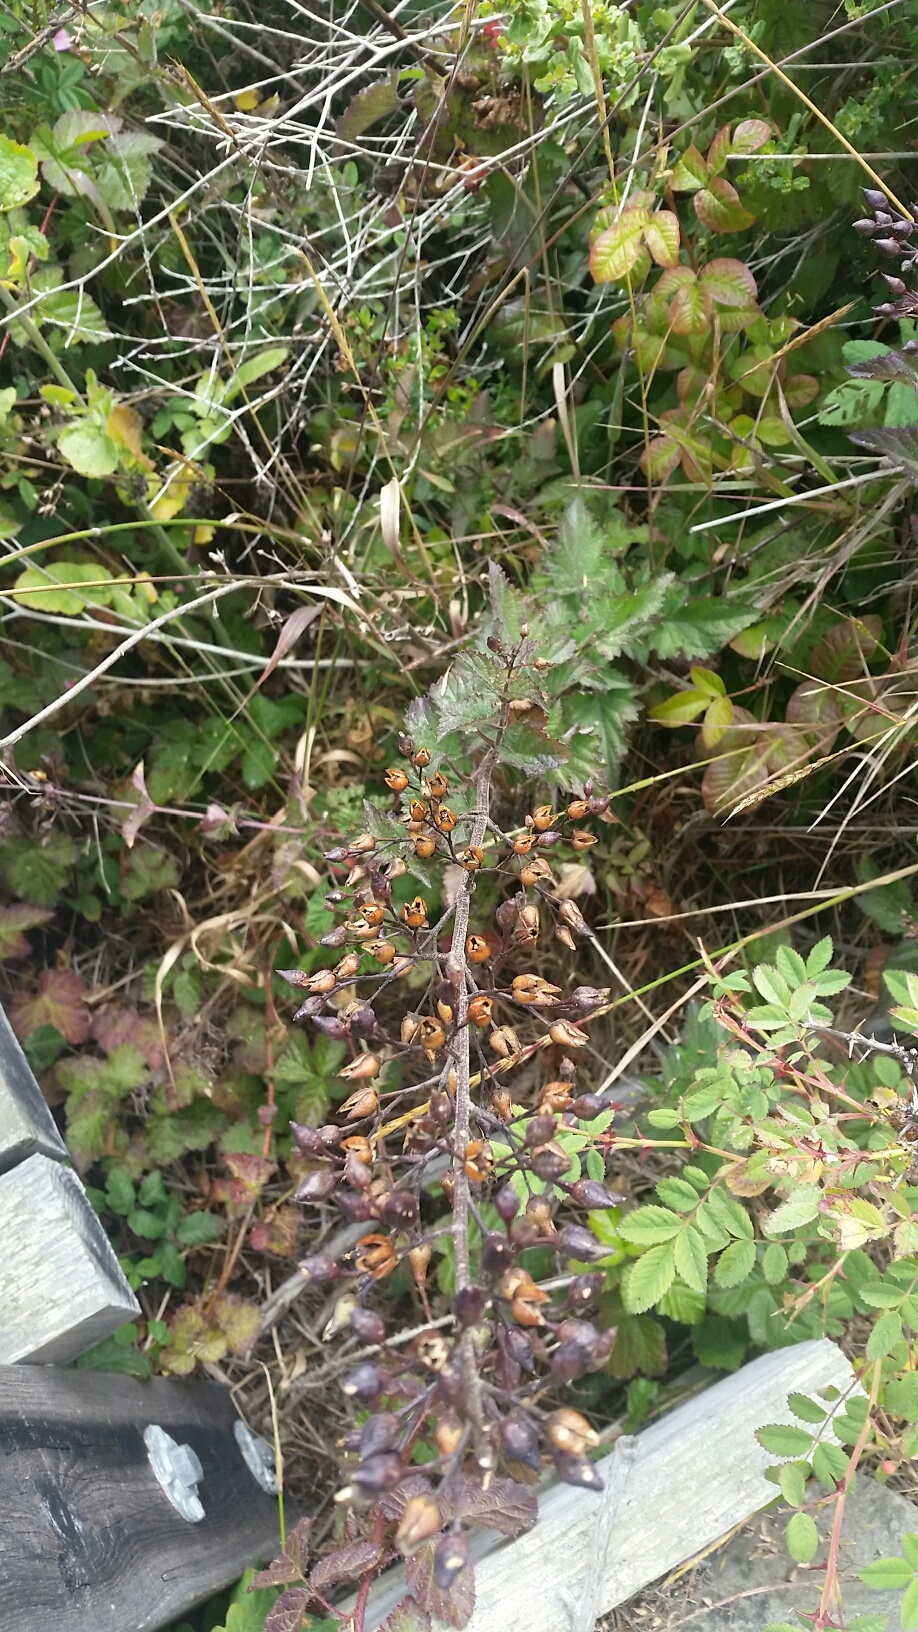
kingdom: Plantae
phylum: Tracheophyta
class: Magnoliopsida
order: Lamiales
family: Scrophulariaceae
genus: Scrophularia
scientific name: Scrophularia californica
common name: California figwort
